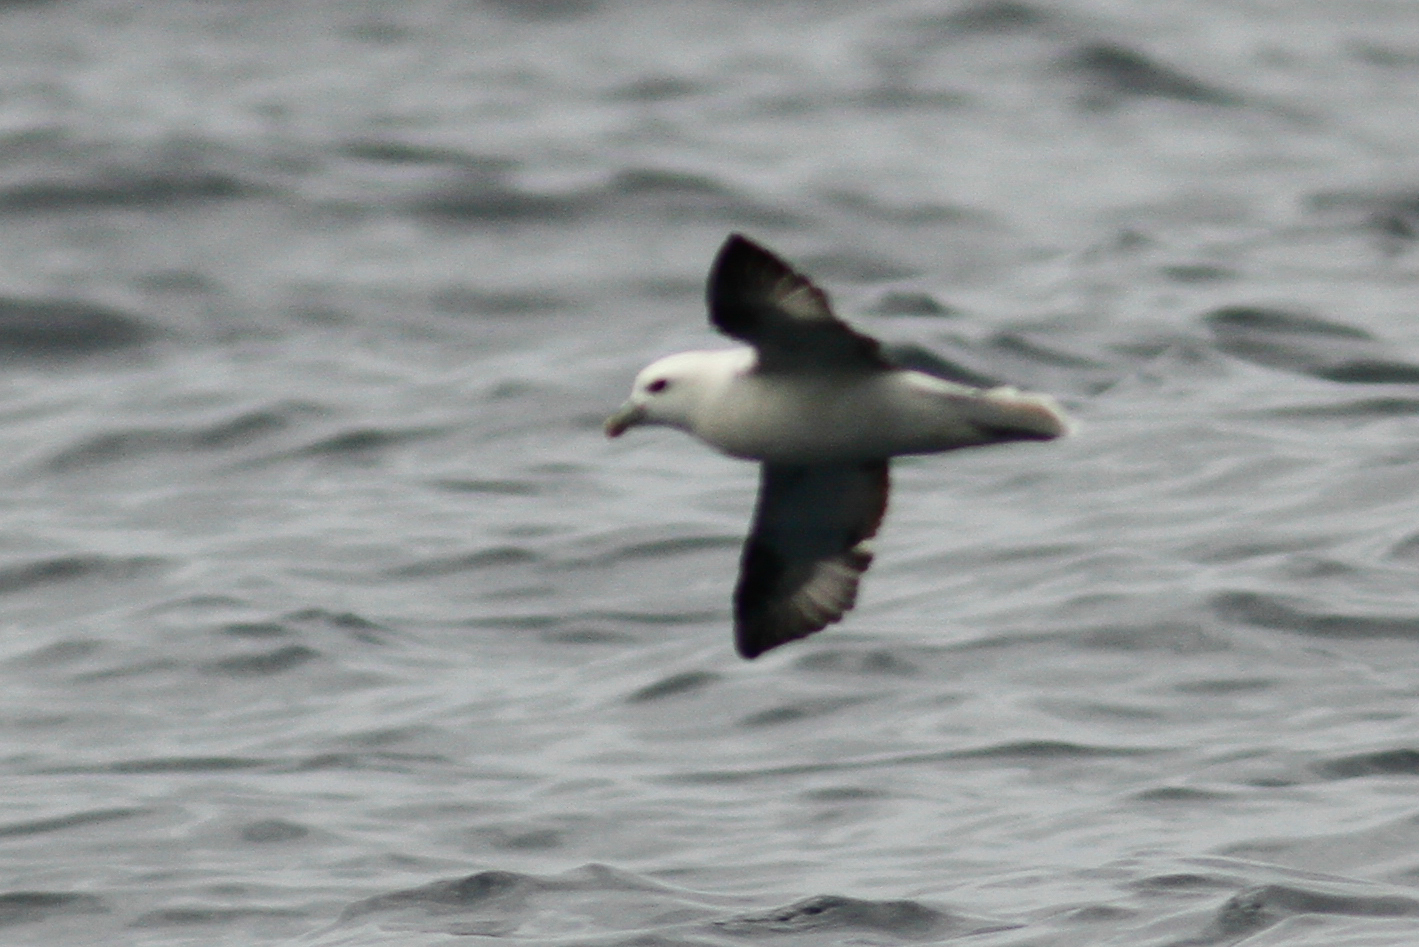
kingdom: Animalia
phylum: Chordata
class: Aves
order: Procellariiformes
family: Procellariidae
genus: Fulmarus
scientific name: Fulmarus glacialis
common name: Northern fulmar
